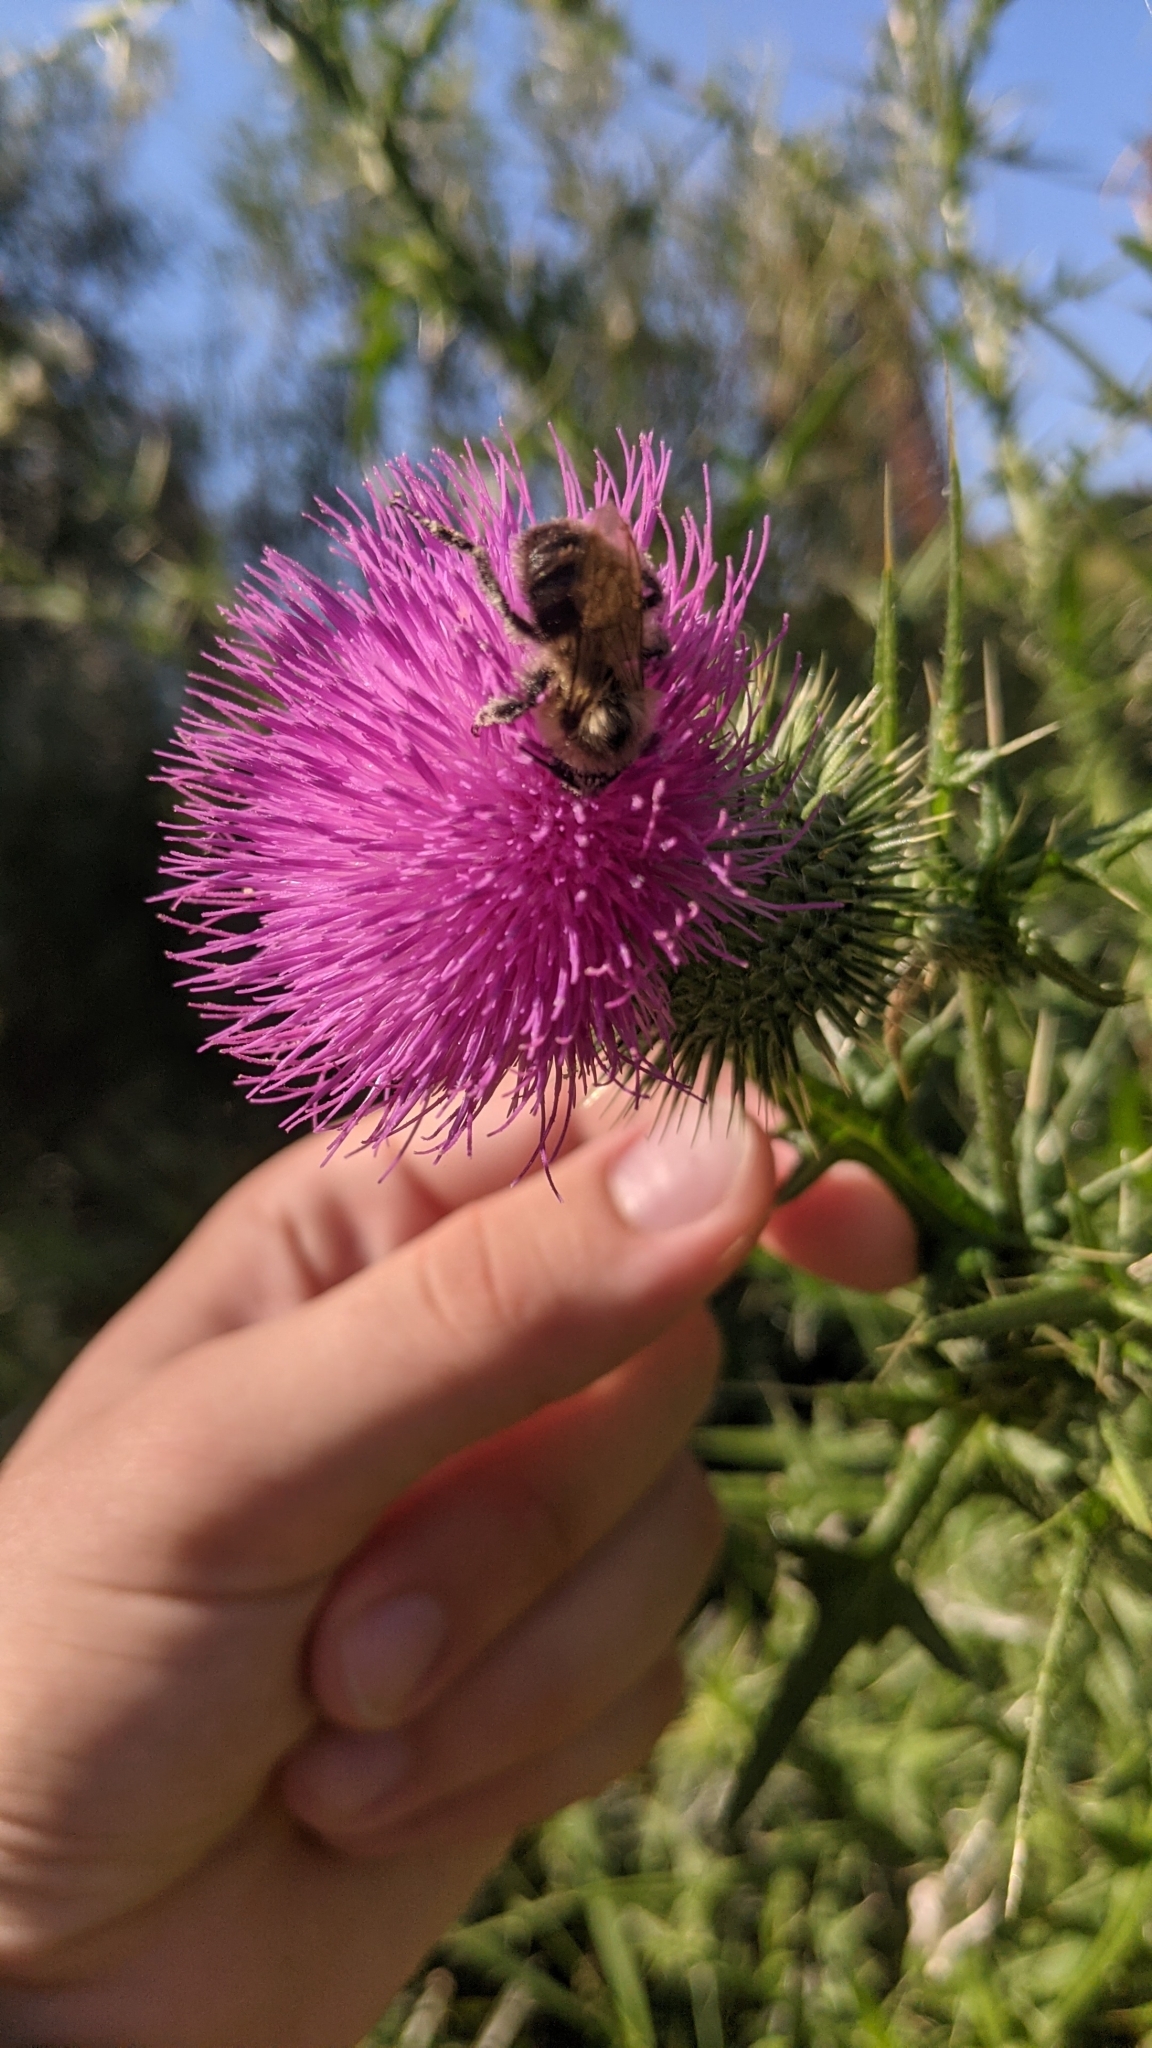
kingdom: Animalia
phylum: Arthropoda
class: Insecta
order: Hymenoptera
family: Apidae
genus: Bombus
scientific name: Bombus impatiens
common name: Common eastern bumble bee
